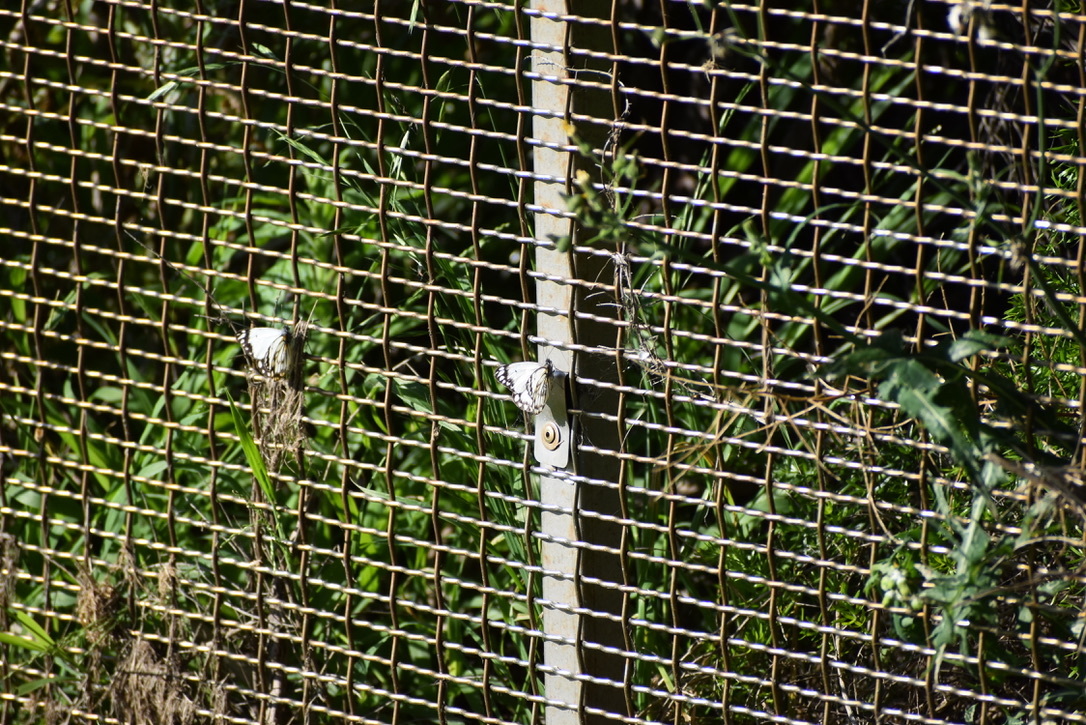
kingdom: Animalia
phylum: Arthropoda
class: Insecta
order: Lepidoptera
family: Pieridae
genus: Belenois
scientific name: Belenois java
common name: Caper white
